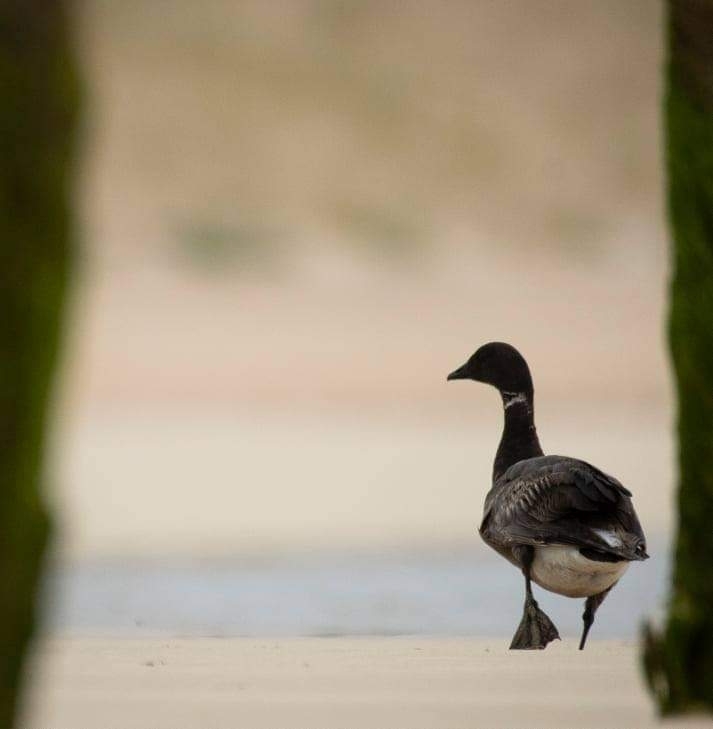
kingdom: Animalia
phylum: Chordata
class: Aves
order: Anseriformes
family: Anatidae
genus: Branta
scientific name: Branta bernicla
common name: Brant goose
